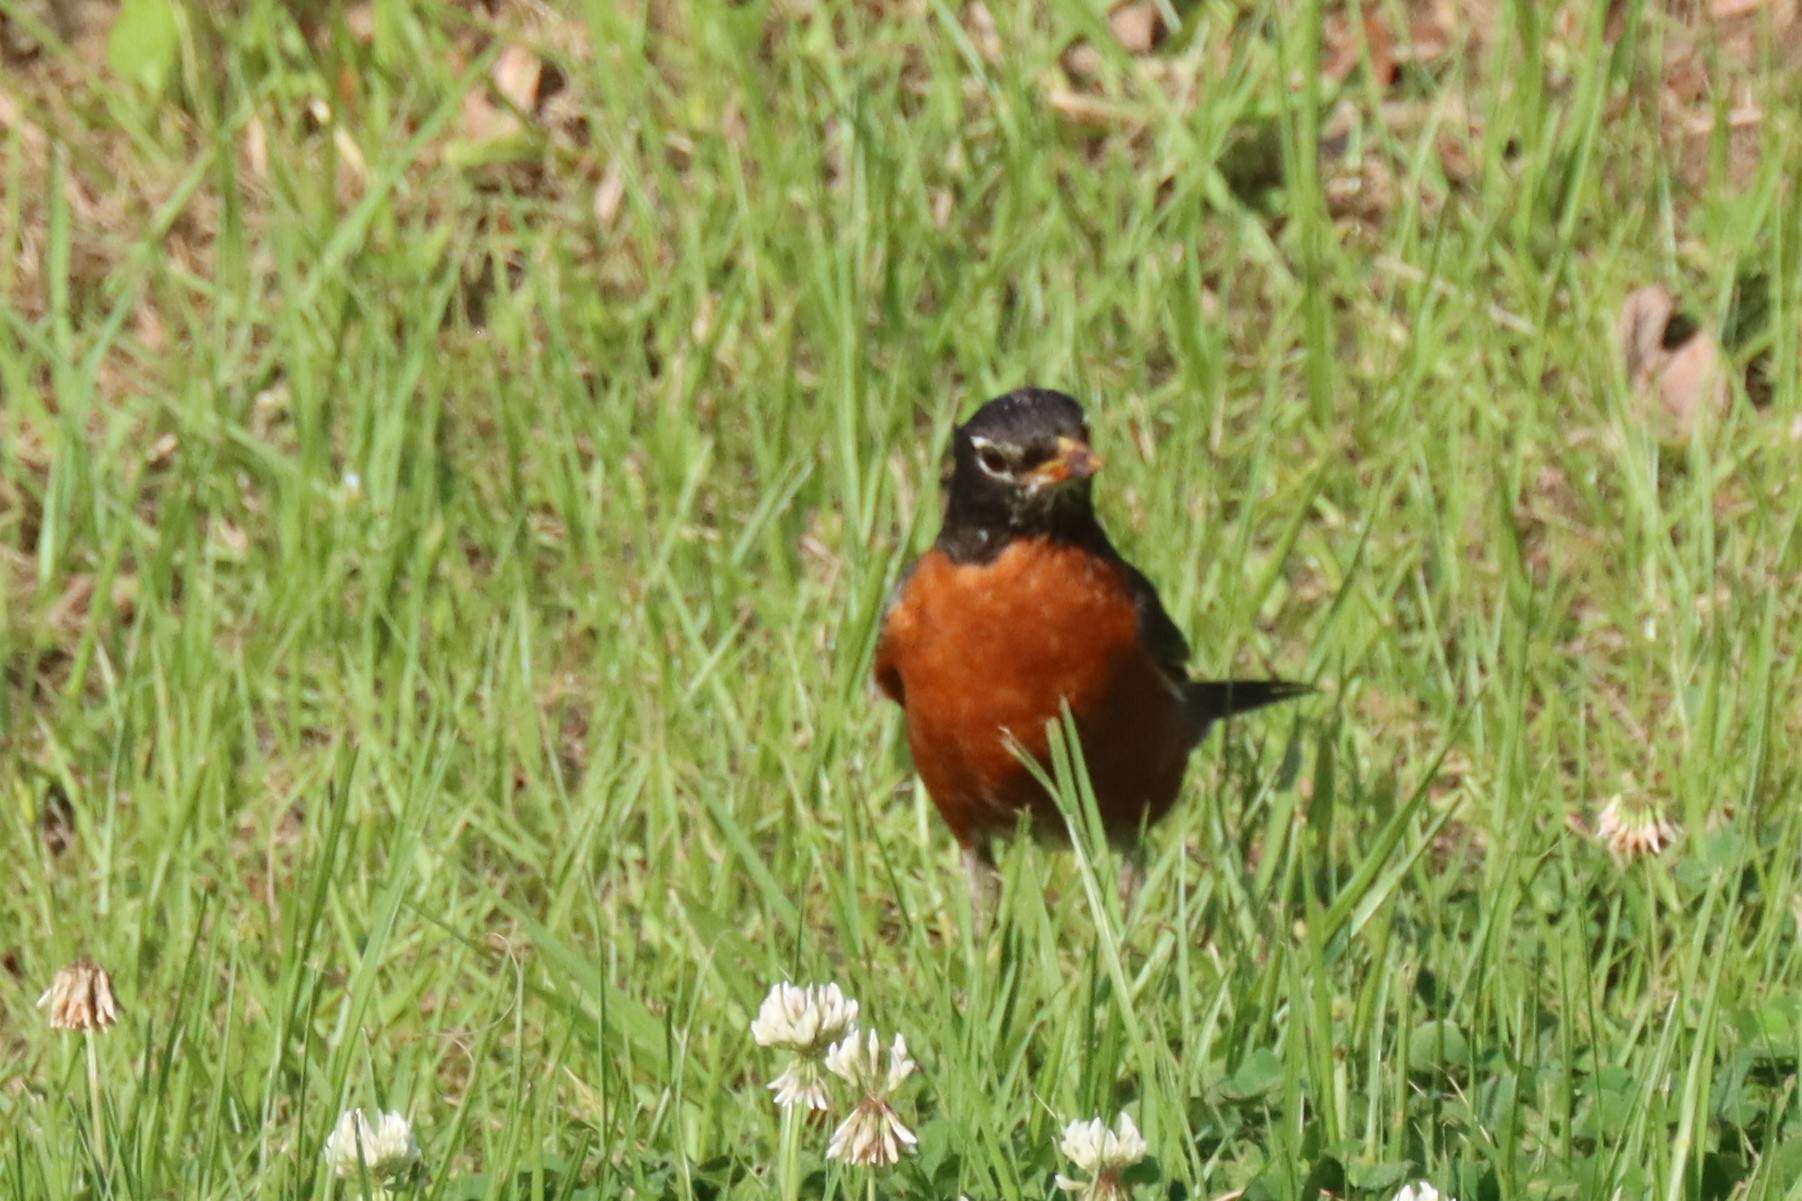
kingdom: Animalia
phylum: Chordata
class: Aves
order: Passeriformes
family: Turdidae
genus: Turdus
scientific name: Turdus migratorius
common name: American robin
